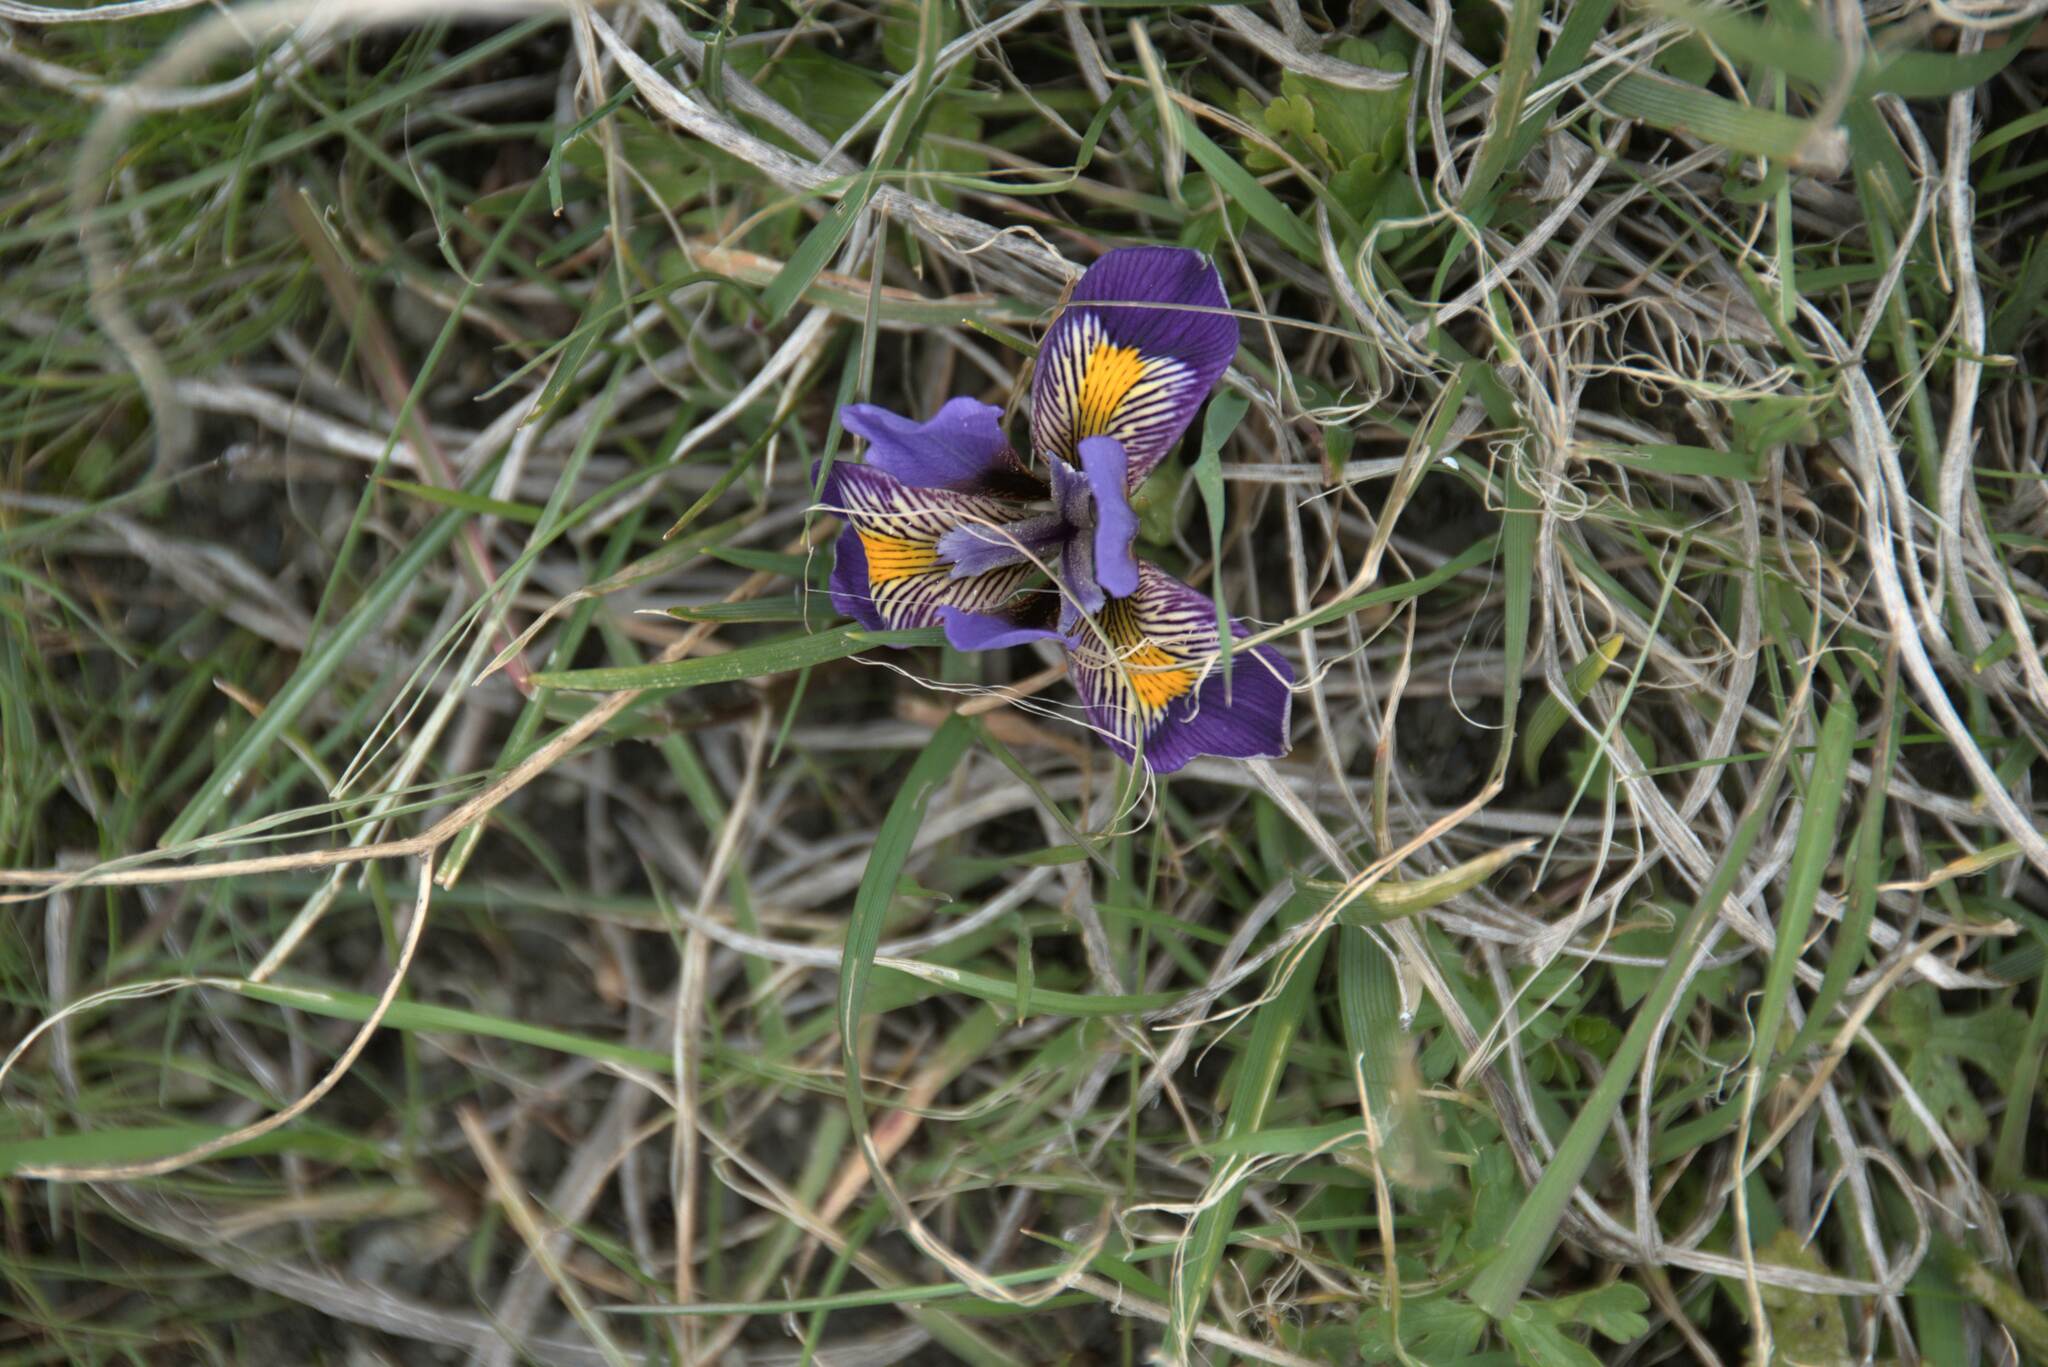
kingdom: Plantae
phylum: Tracheophyta
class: Liliopsida
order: Asparagales
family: Iridaceae
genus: Iris
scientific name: Iris unguicularis
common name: Algerian iris
